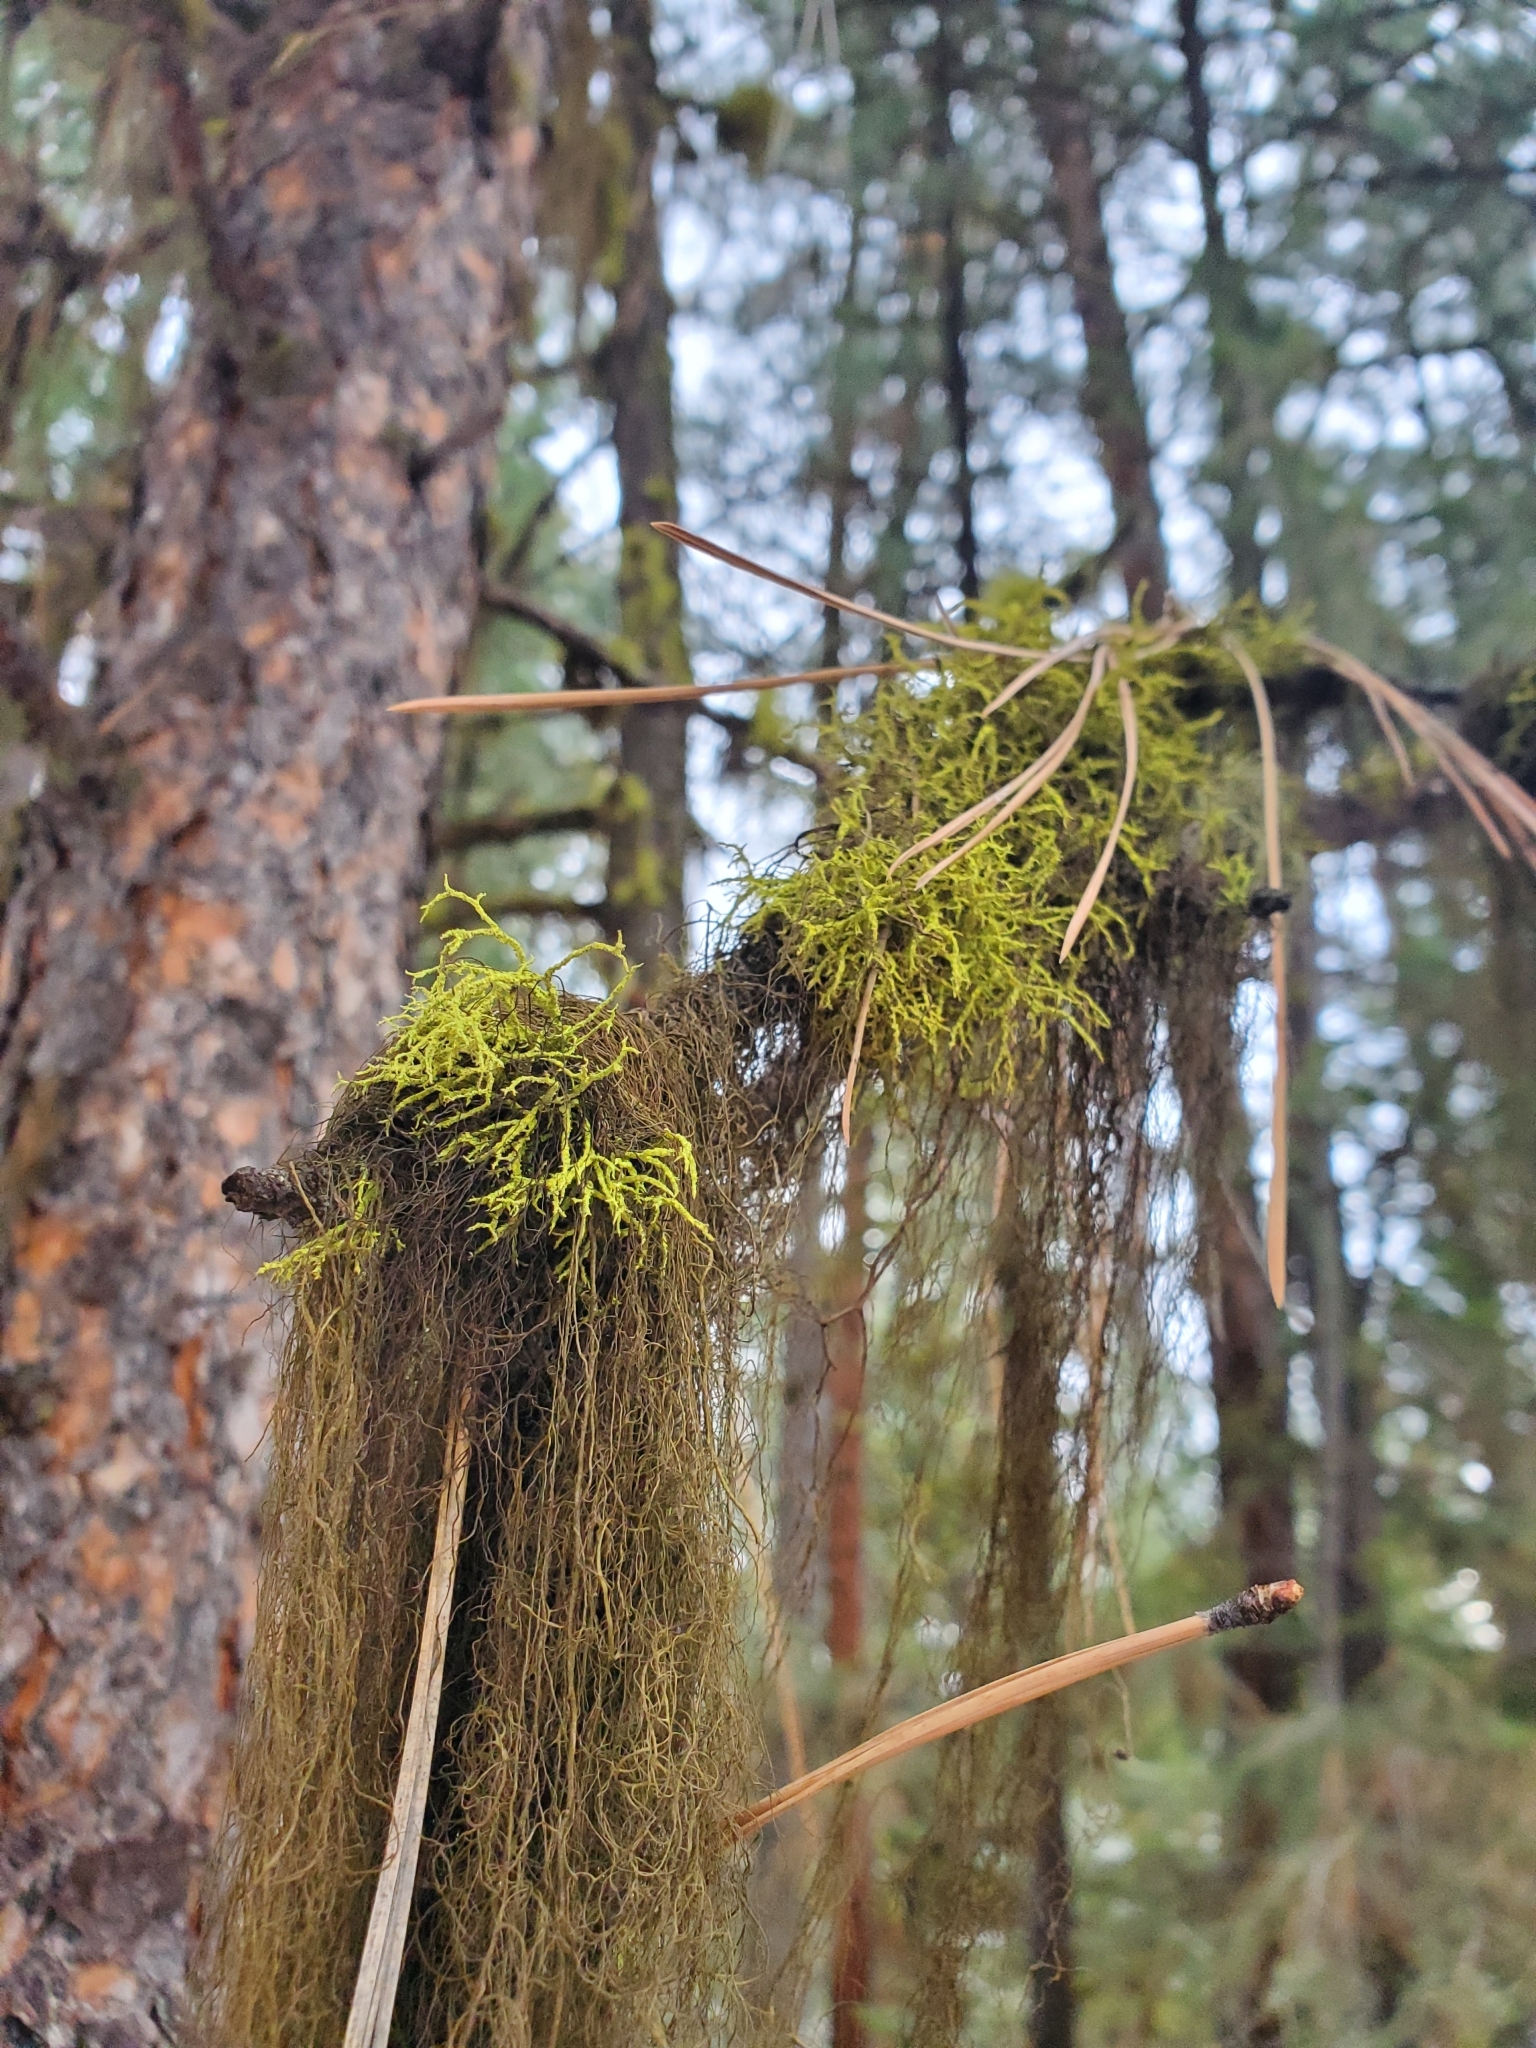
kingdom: Fungi
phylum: Ascomycota
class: Lecanoromycetes
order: Lecanorales
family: Parmeliaceae
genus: Letharia
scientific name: Letharia vulpina
